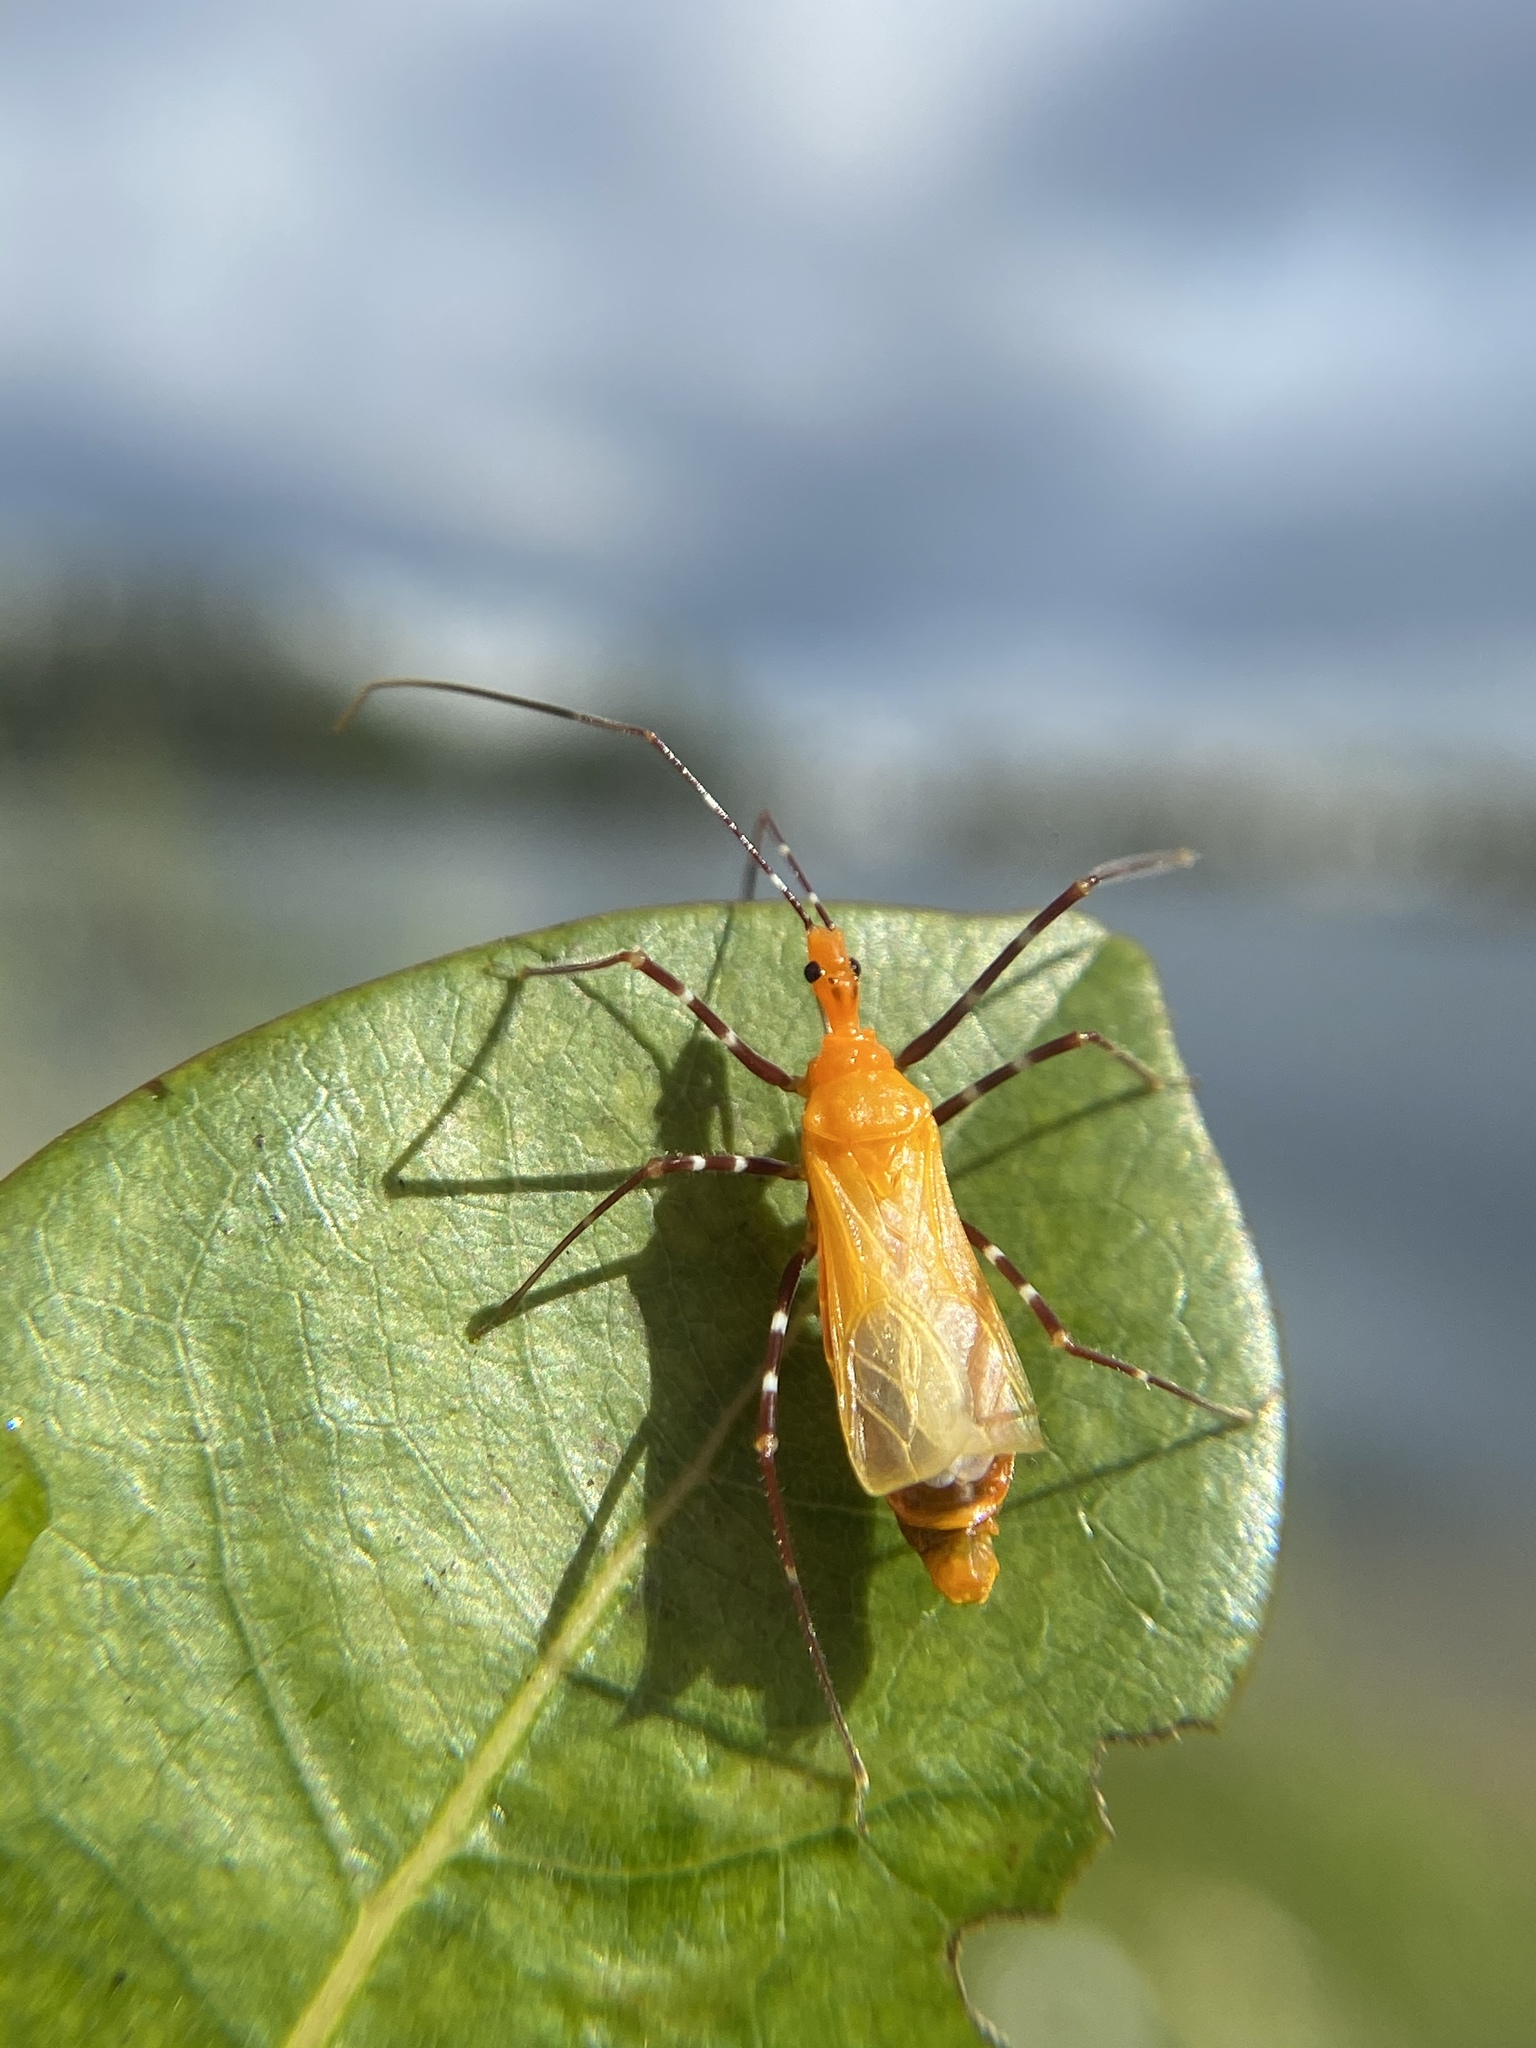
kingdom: Animalia
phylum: Arthropoda
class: Insecta
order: Hemiptera
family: Reduviidae
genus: Zelus
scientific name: Zelus longipes
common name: Milkweed assassin bug
